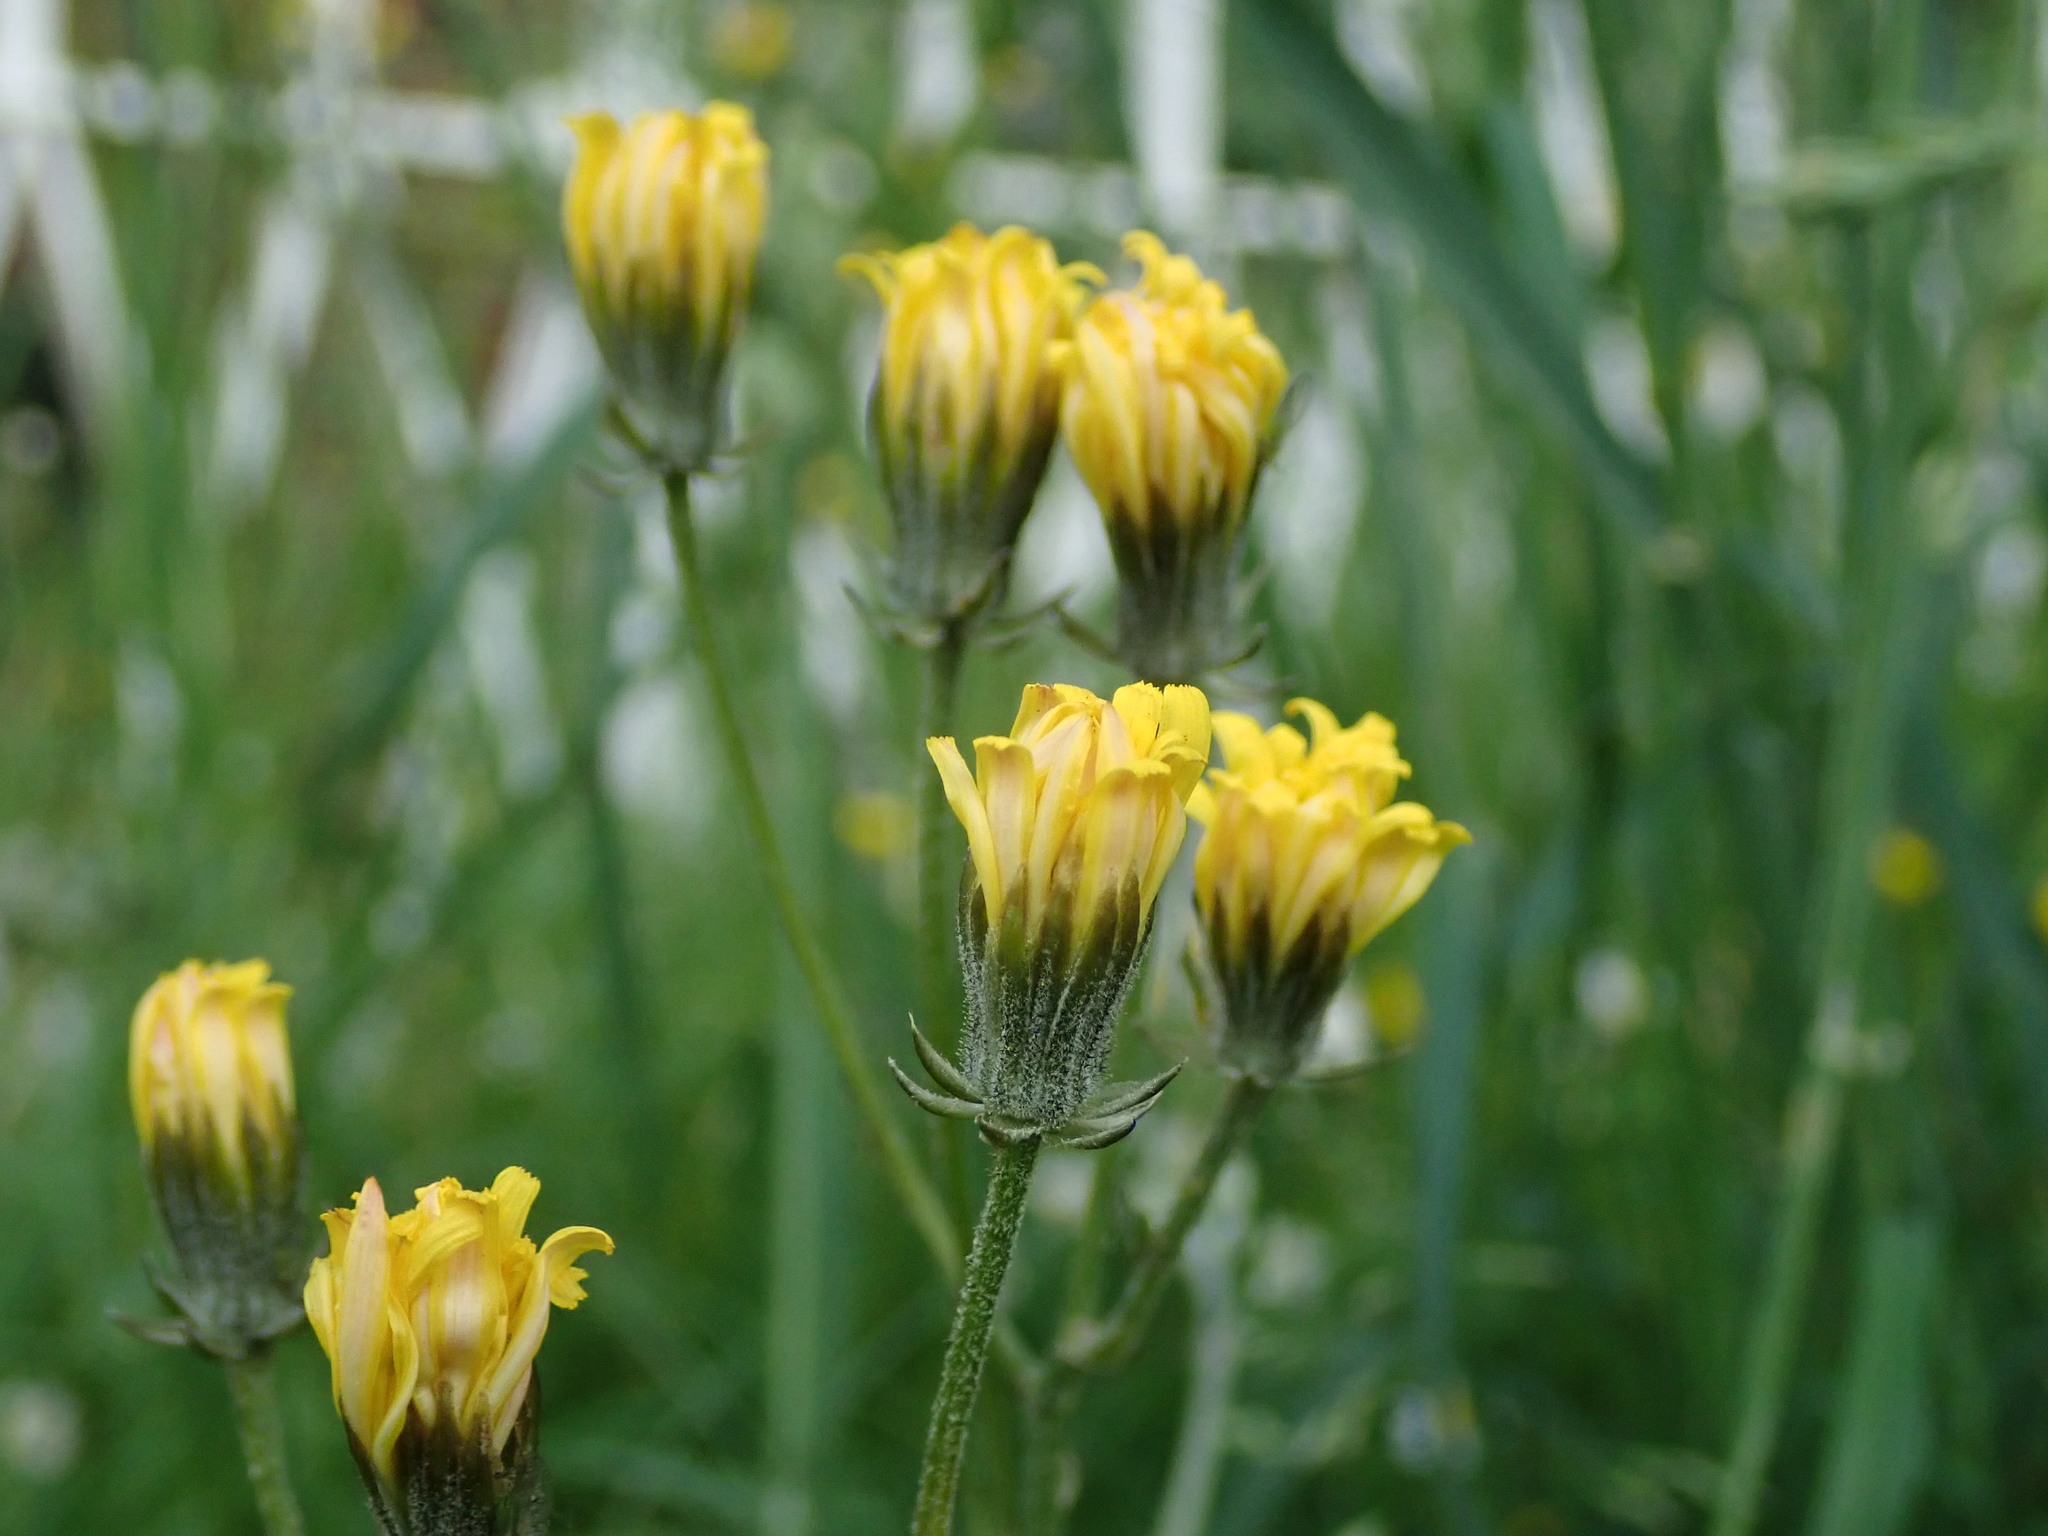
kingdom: Plantae
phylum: Tracheophyta
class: Magnoliopsida
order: Asterales
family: Asteraceae
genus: Crepis
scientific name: Crepis vesicaria
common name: Beaked hawksbeard
